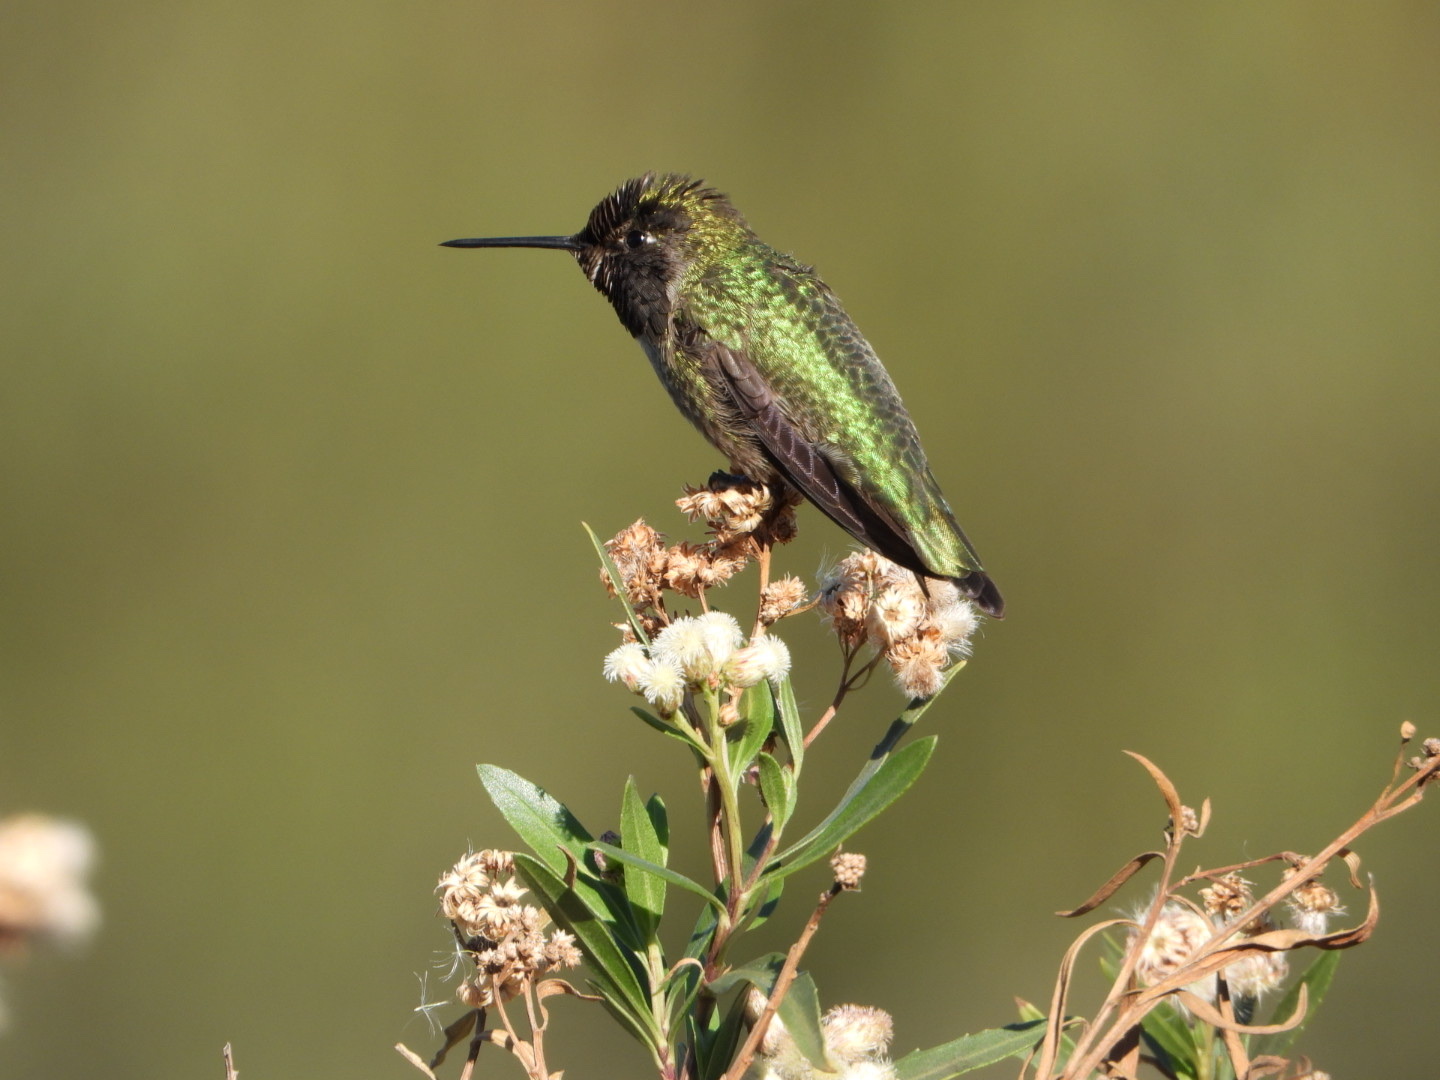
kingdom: Animalia
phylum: Chordata
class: Aves
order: Apodiformes
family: Trochilidae
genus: Calypte
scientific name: Calypte anna
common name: Anna's hummingbird
